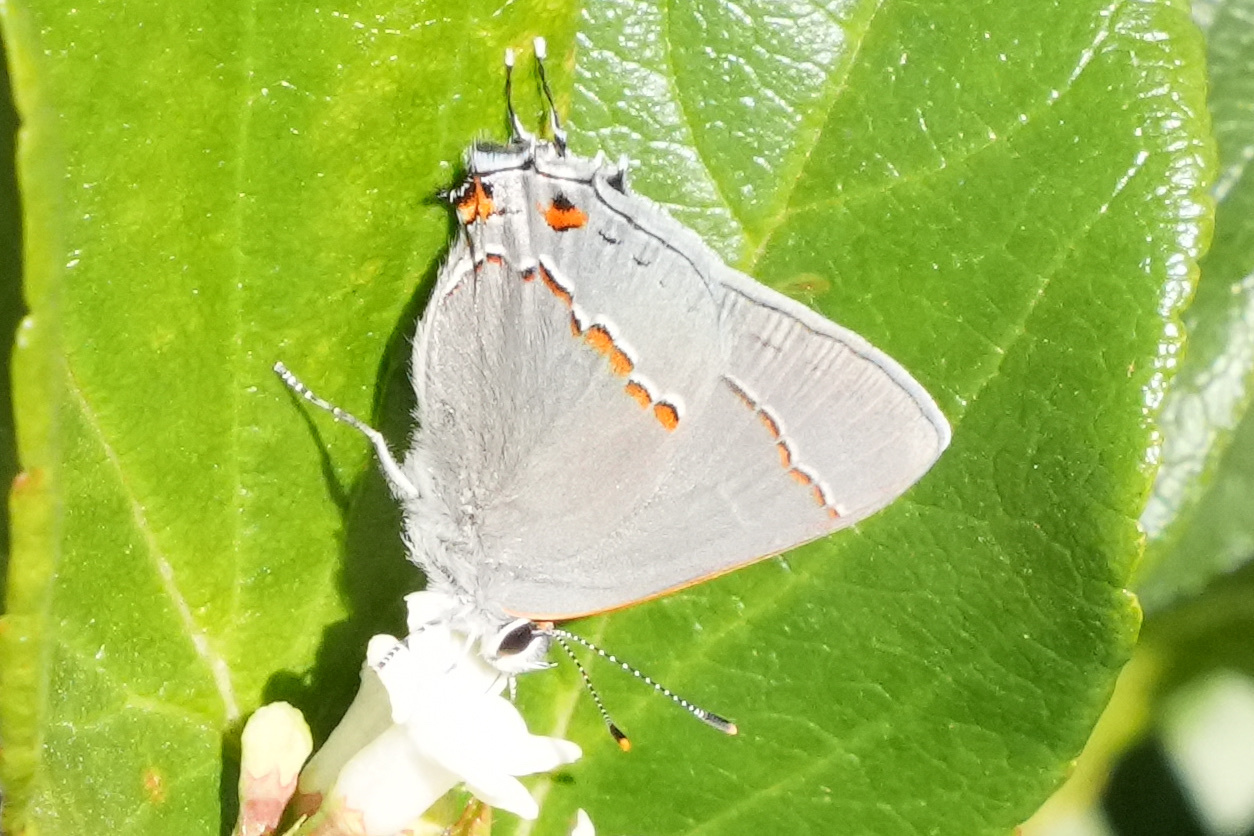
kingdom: Animalia
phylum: Arthropoda
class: Insecta
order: Lepidoptera
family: Lycaenidae
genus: Strymon
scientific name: Strymon melinus
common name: Gray hairstreak
